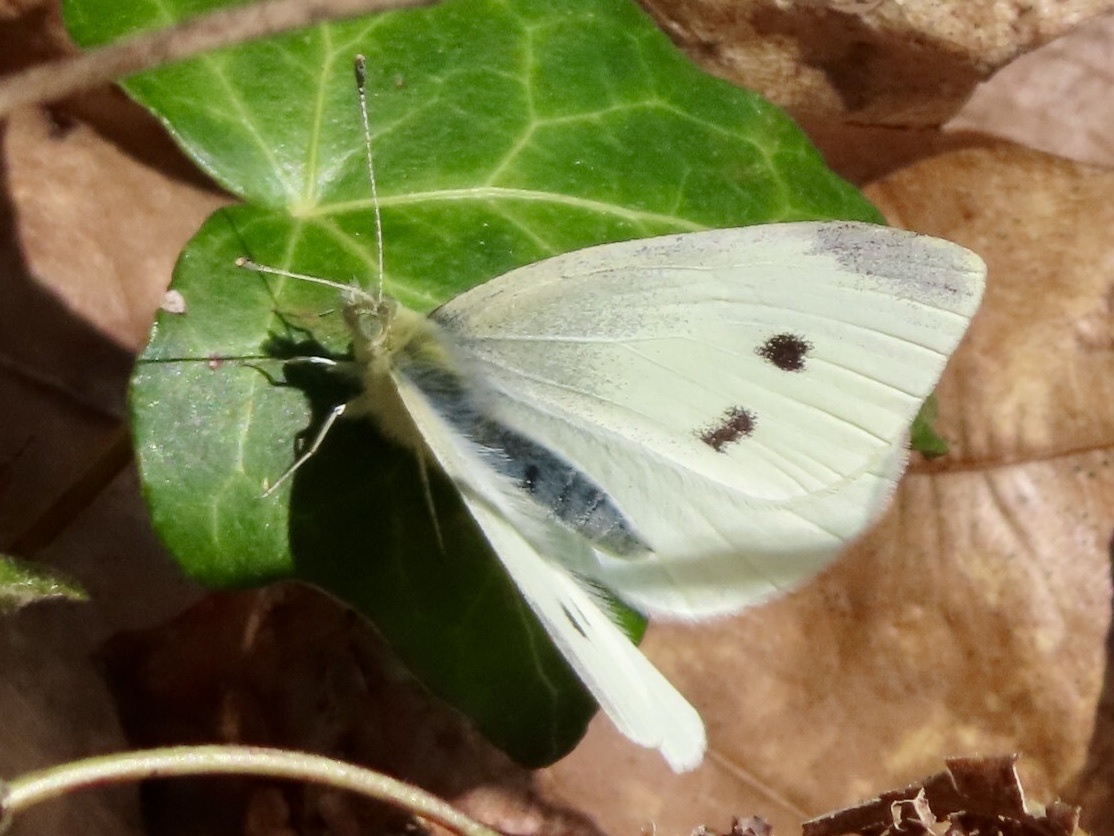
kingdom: Animalia
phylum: Arthropoda
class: Insecta
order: Lepidoptera
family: Pieridae
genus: Pieris
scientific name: Pieris rapae
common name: Small white
